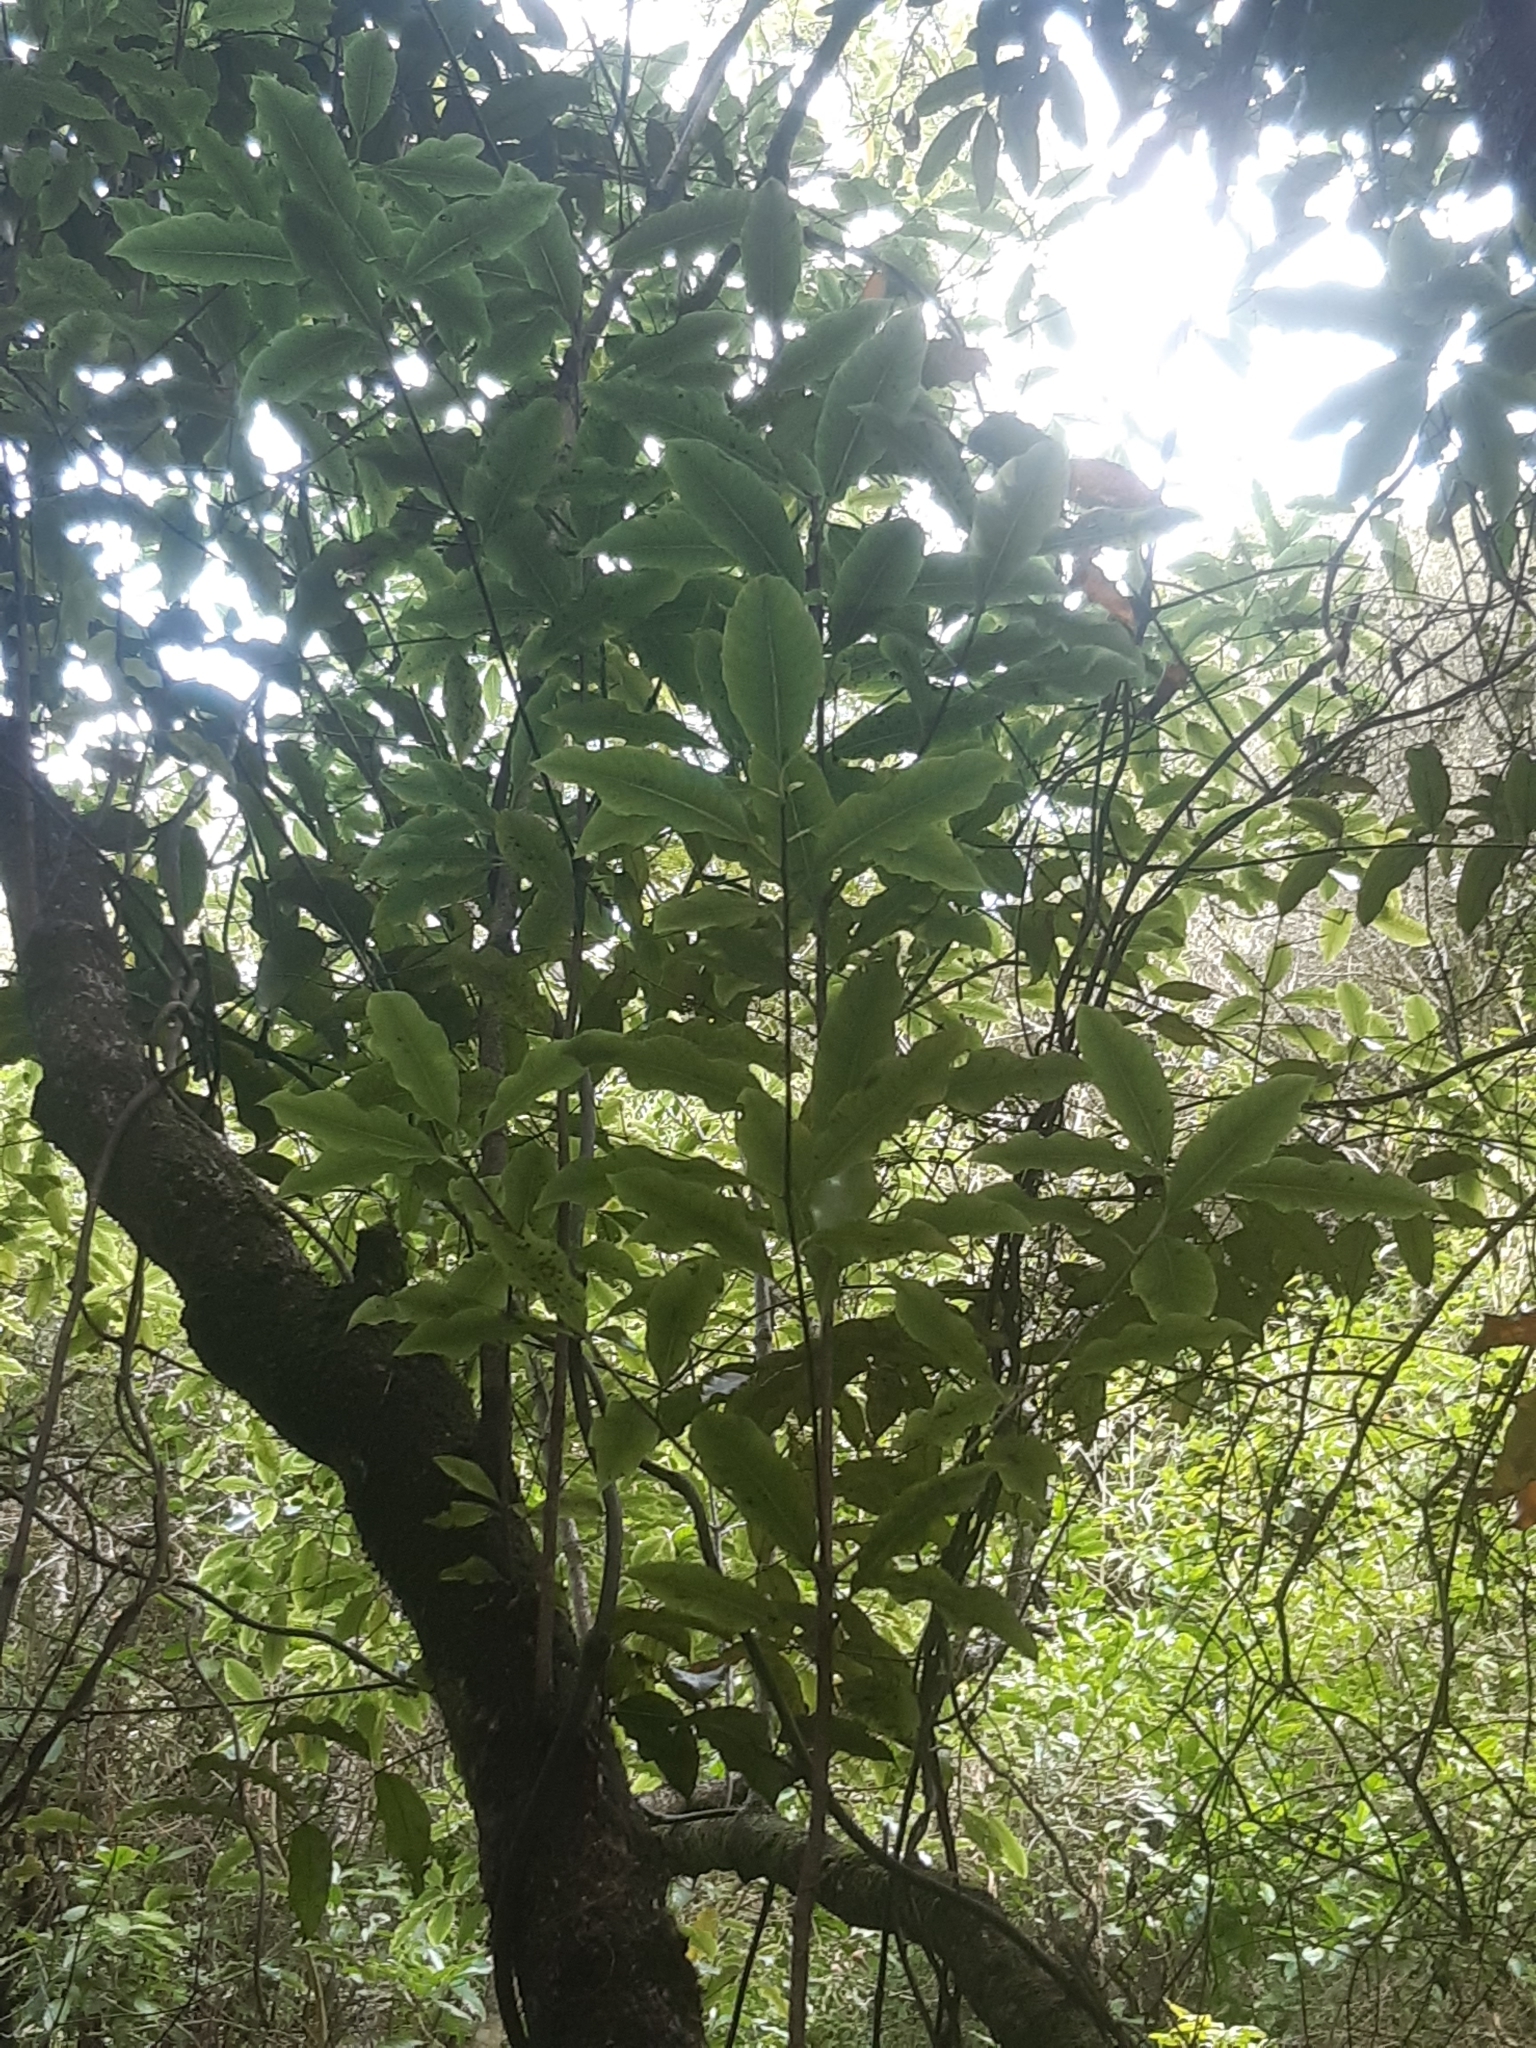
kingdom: Plantae
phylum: Tracheophyta
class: Magnoliopsida
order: Apiales
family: Pittosporaceae
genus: Pittosporum
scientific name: Pittosporum eugenioides
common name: Lemonwood
